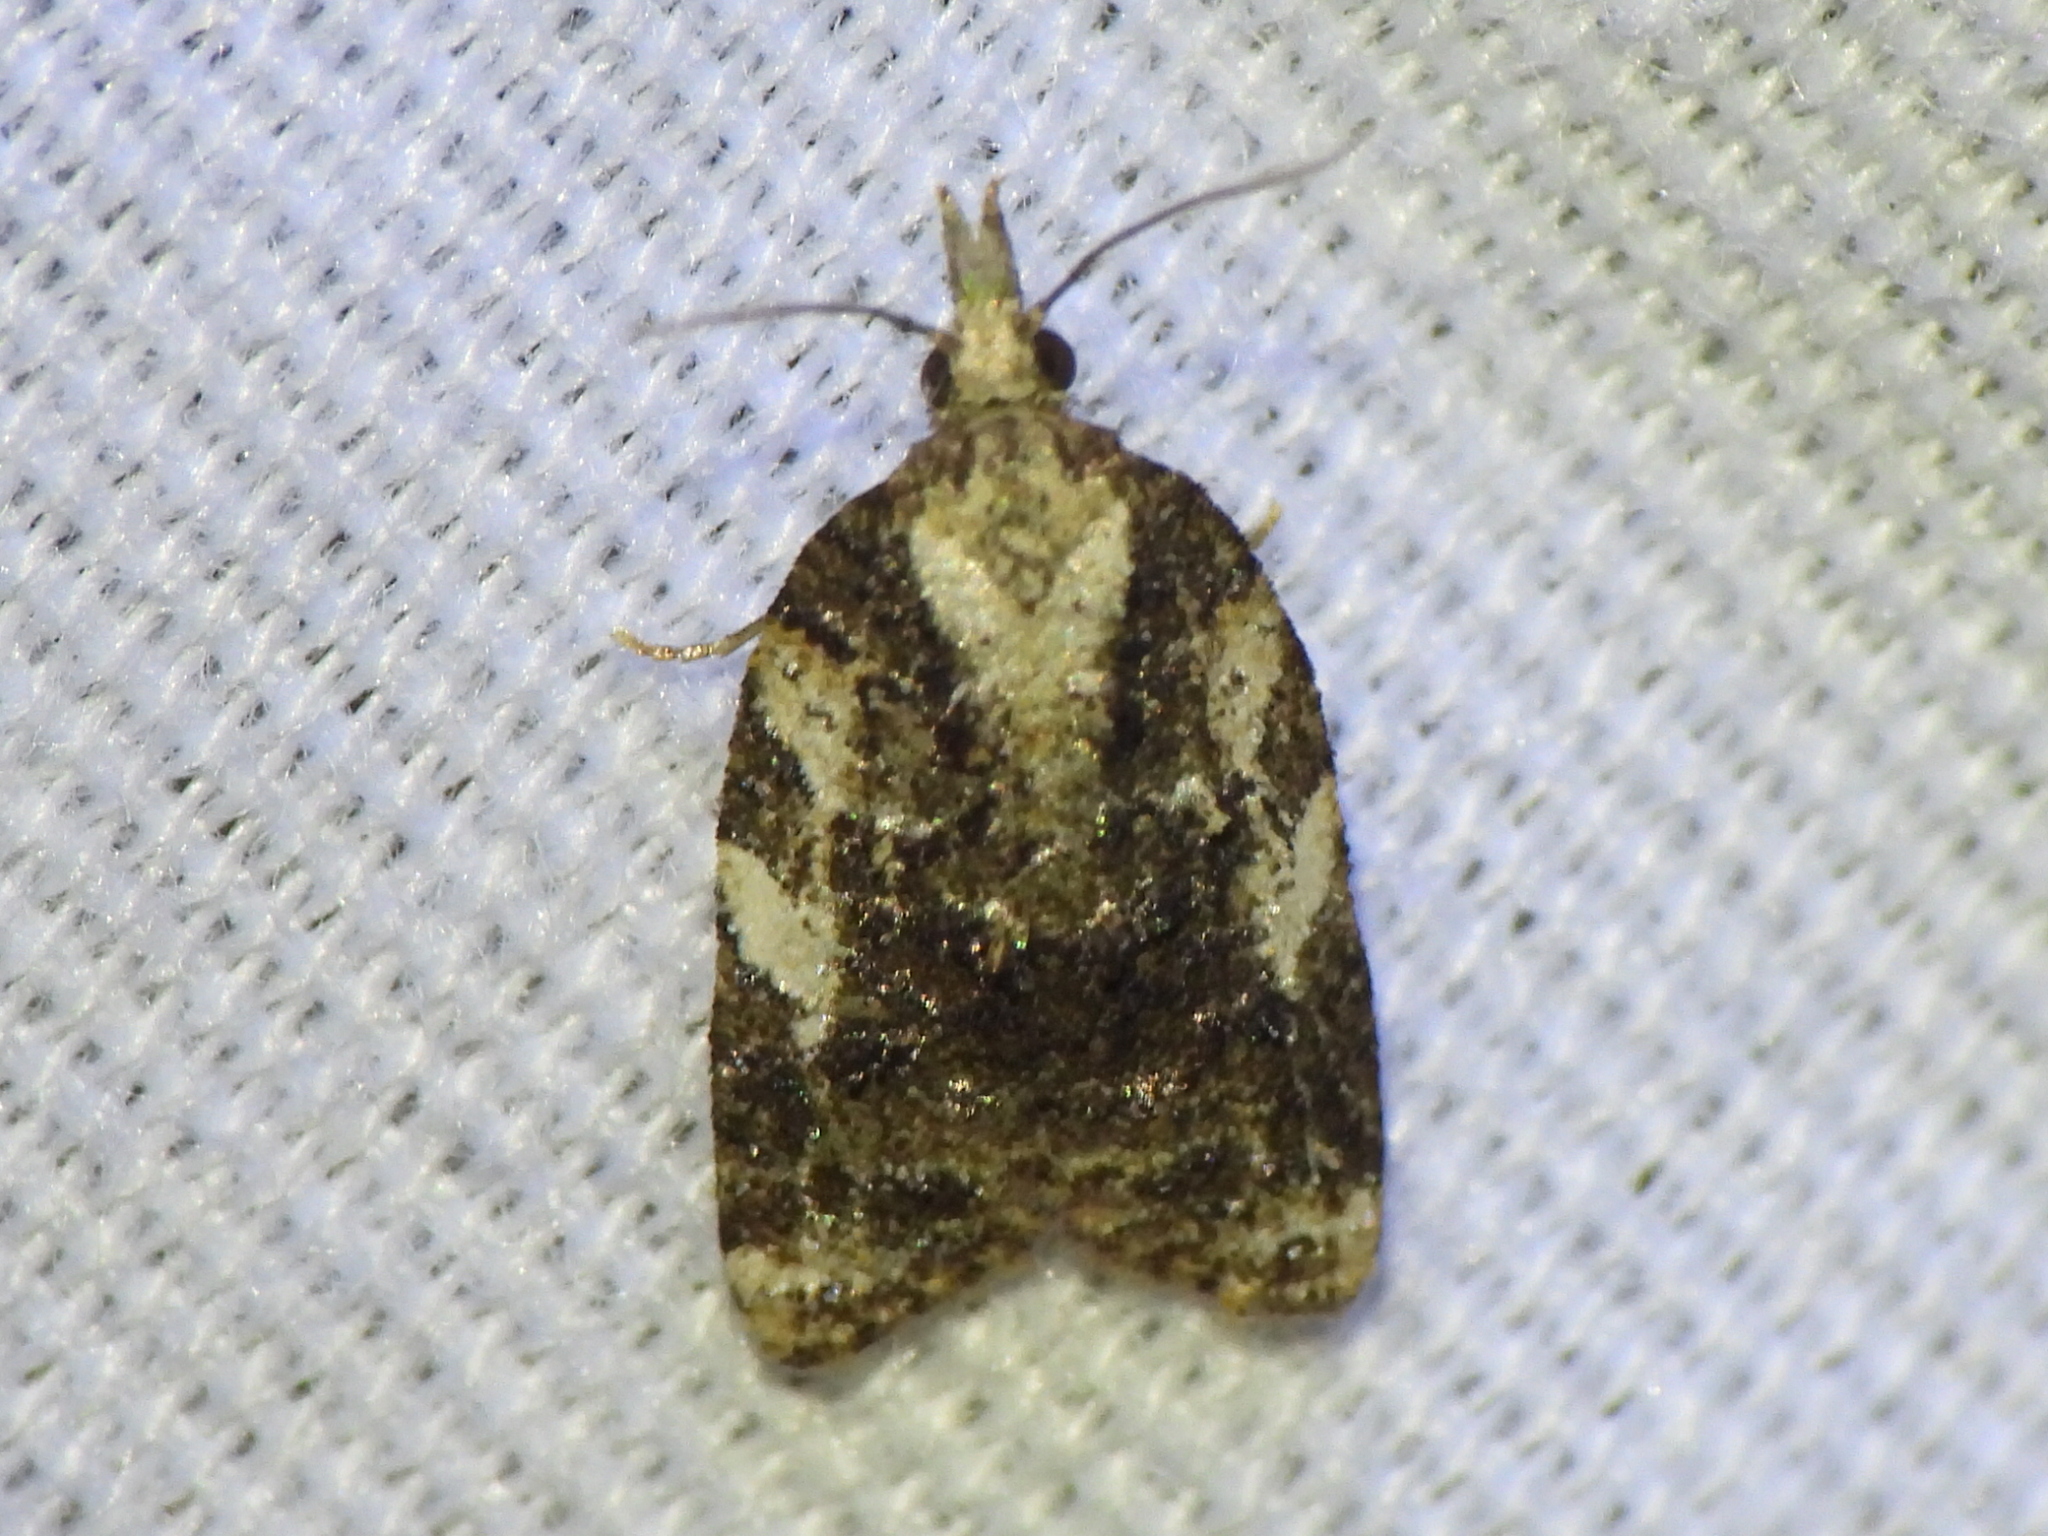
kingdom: Animalia
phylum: Arthropoda
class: Insecta
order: Lepidoptera
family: Tortricidae
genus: Platynota
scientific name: Platynota exasperatana
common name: Exasperating platynota moth
